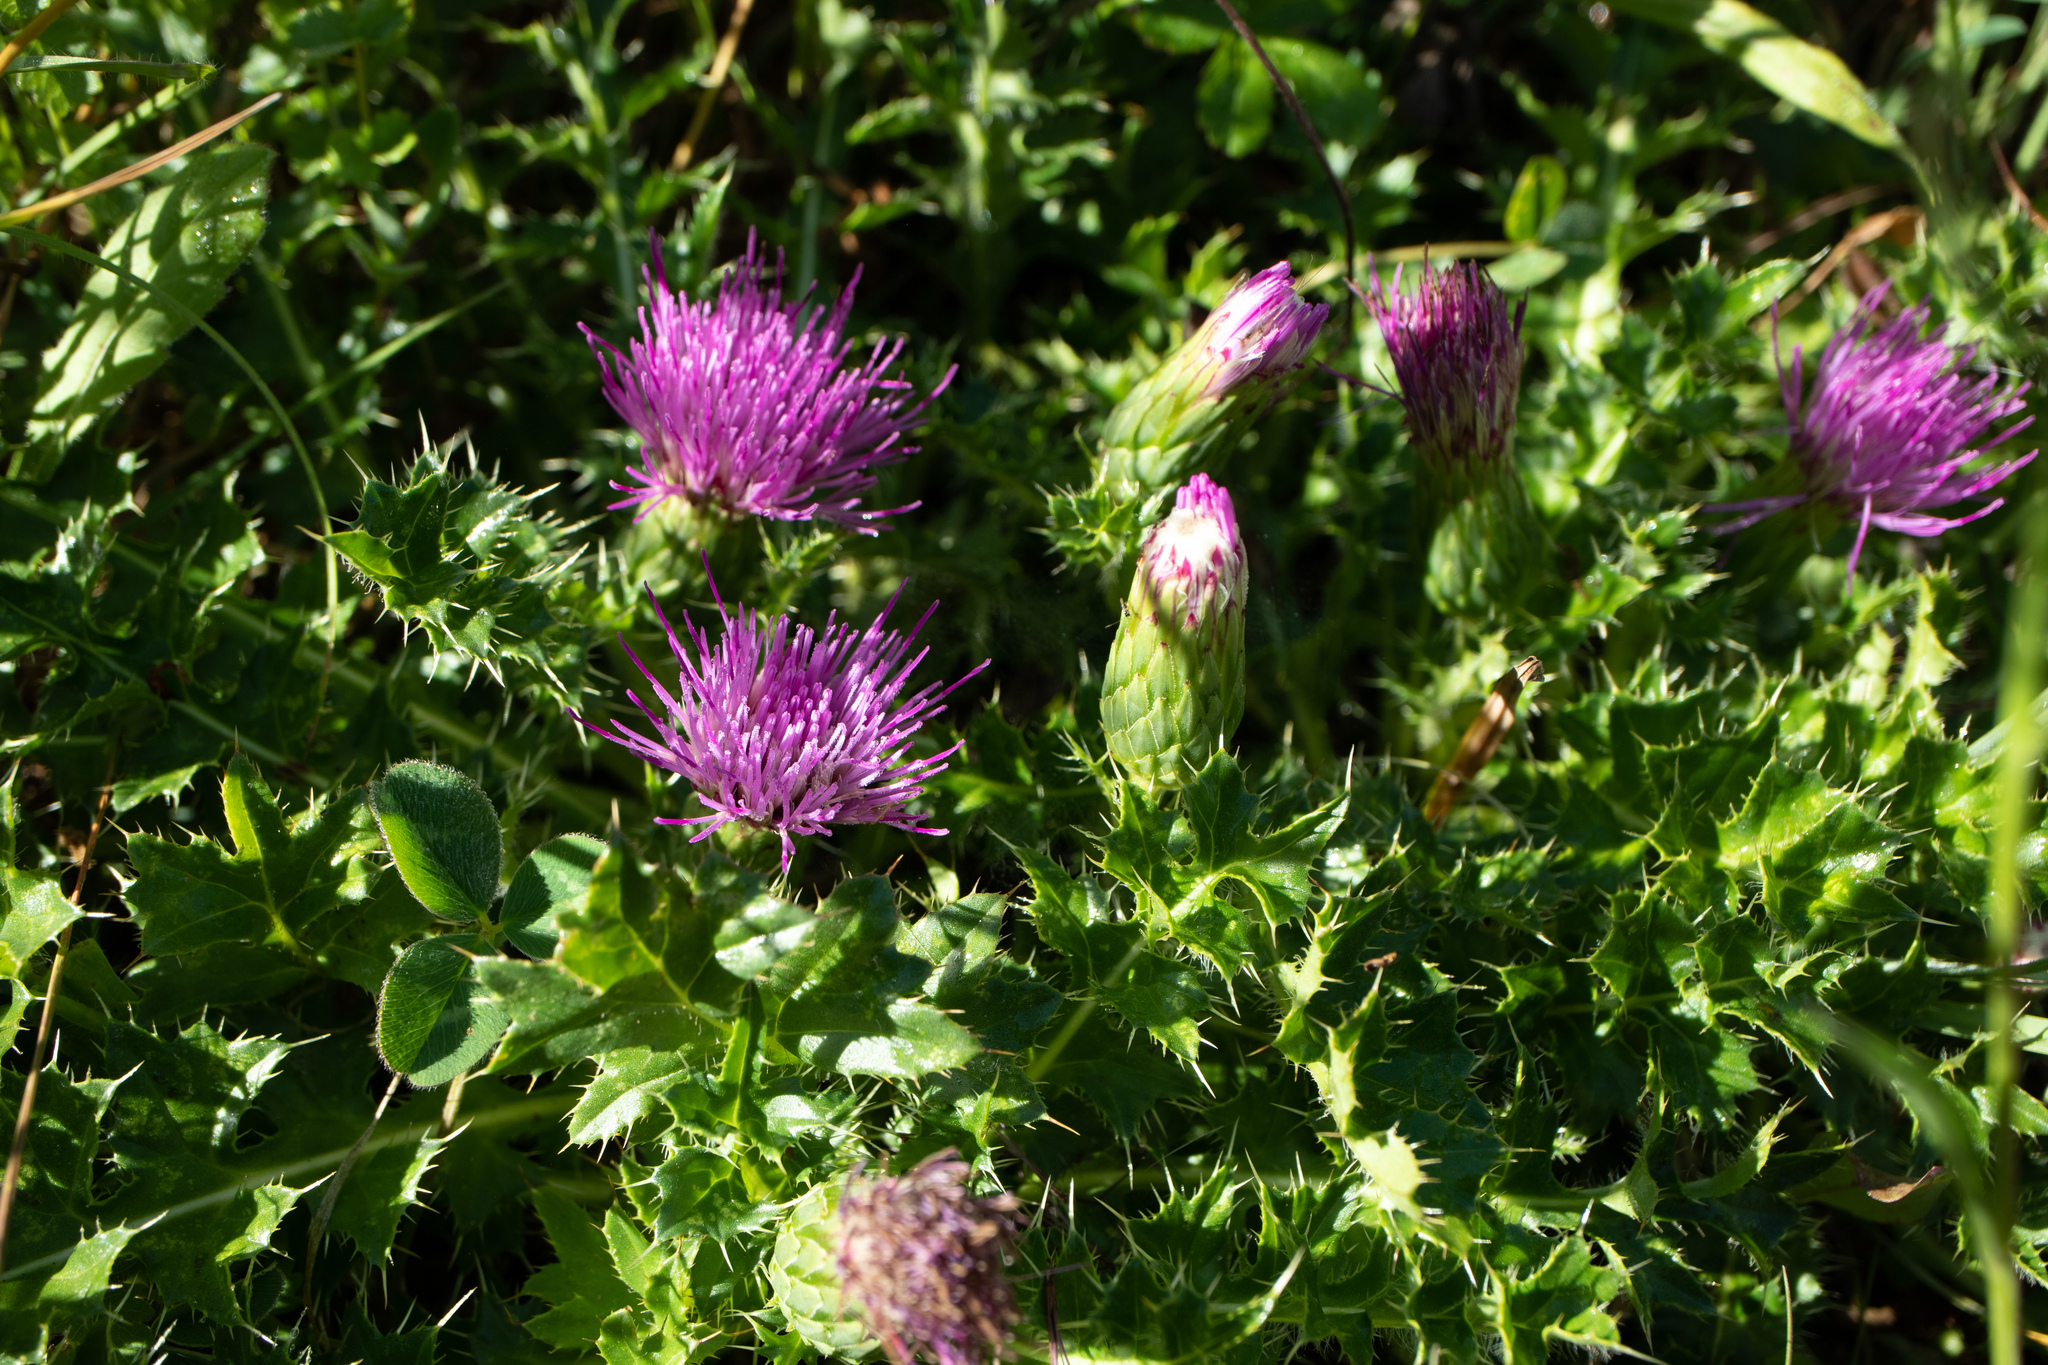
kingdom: Plantae
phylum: Tracheophyta
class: Magnoliopsida
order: Asterales
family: Asteraceae
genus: Cirsium
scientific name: Cirsium acaulon
